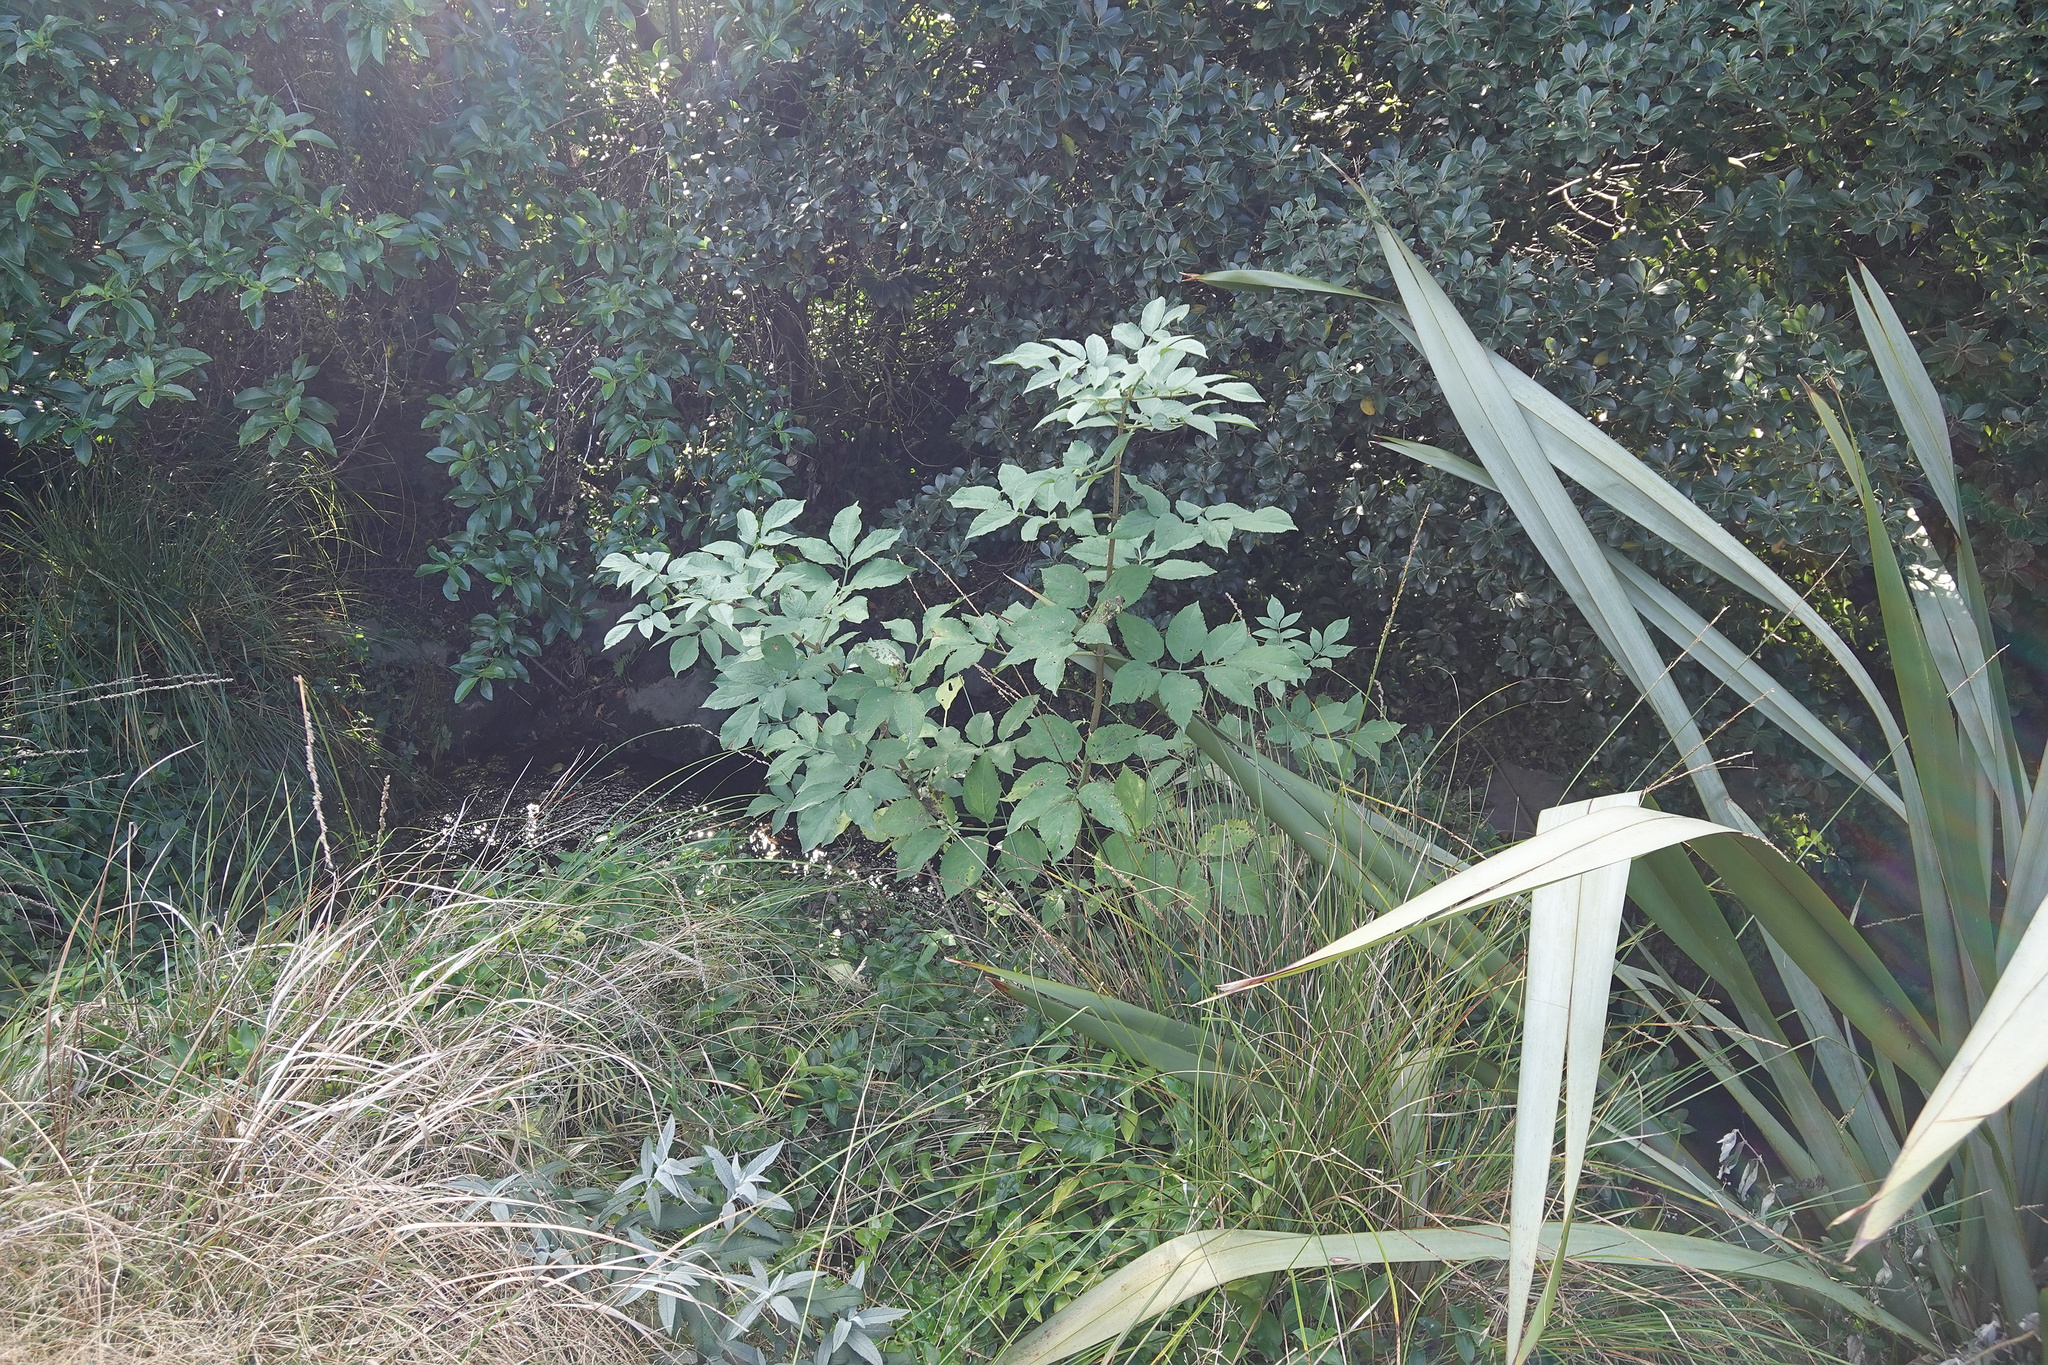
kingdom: Plantae
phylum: Tracheophyta
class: Magnoliopsida
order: Dipsacales
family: Viburnaceae
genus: Sambucus
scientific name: Sambucus nigra
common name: Elder
